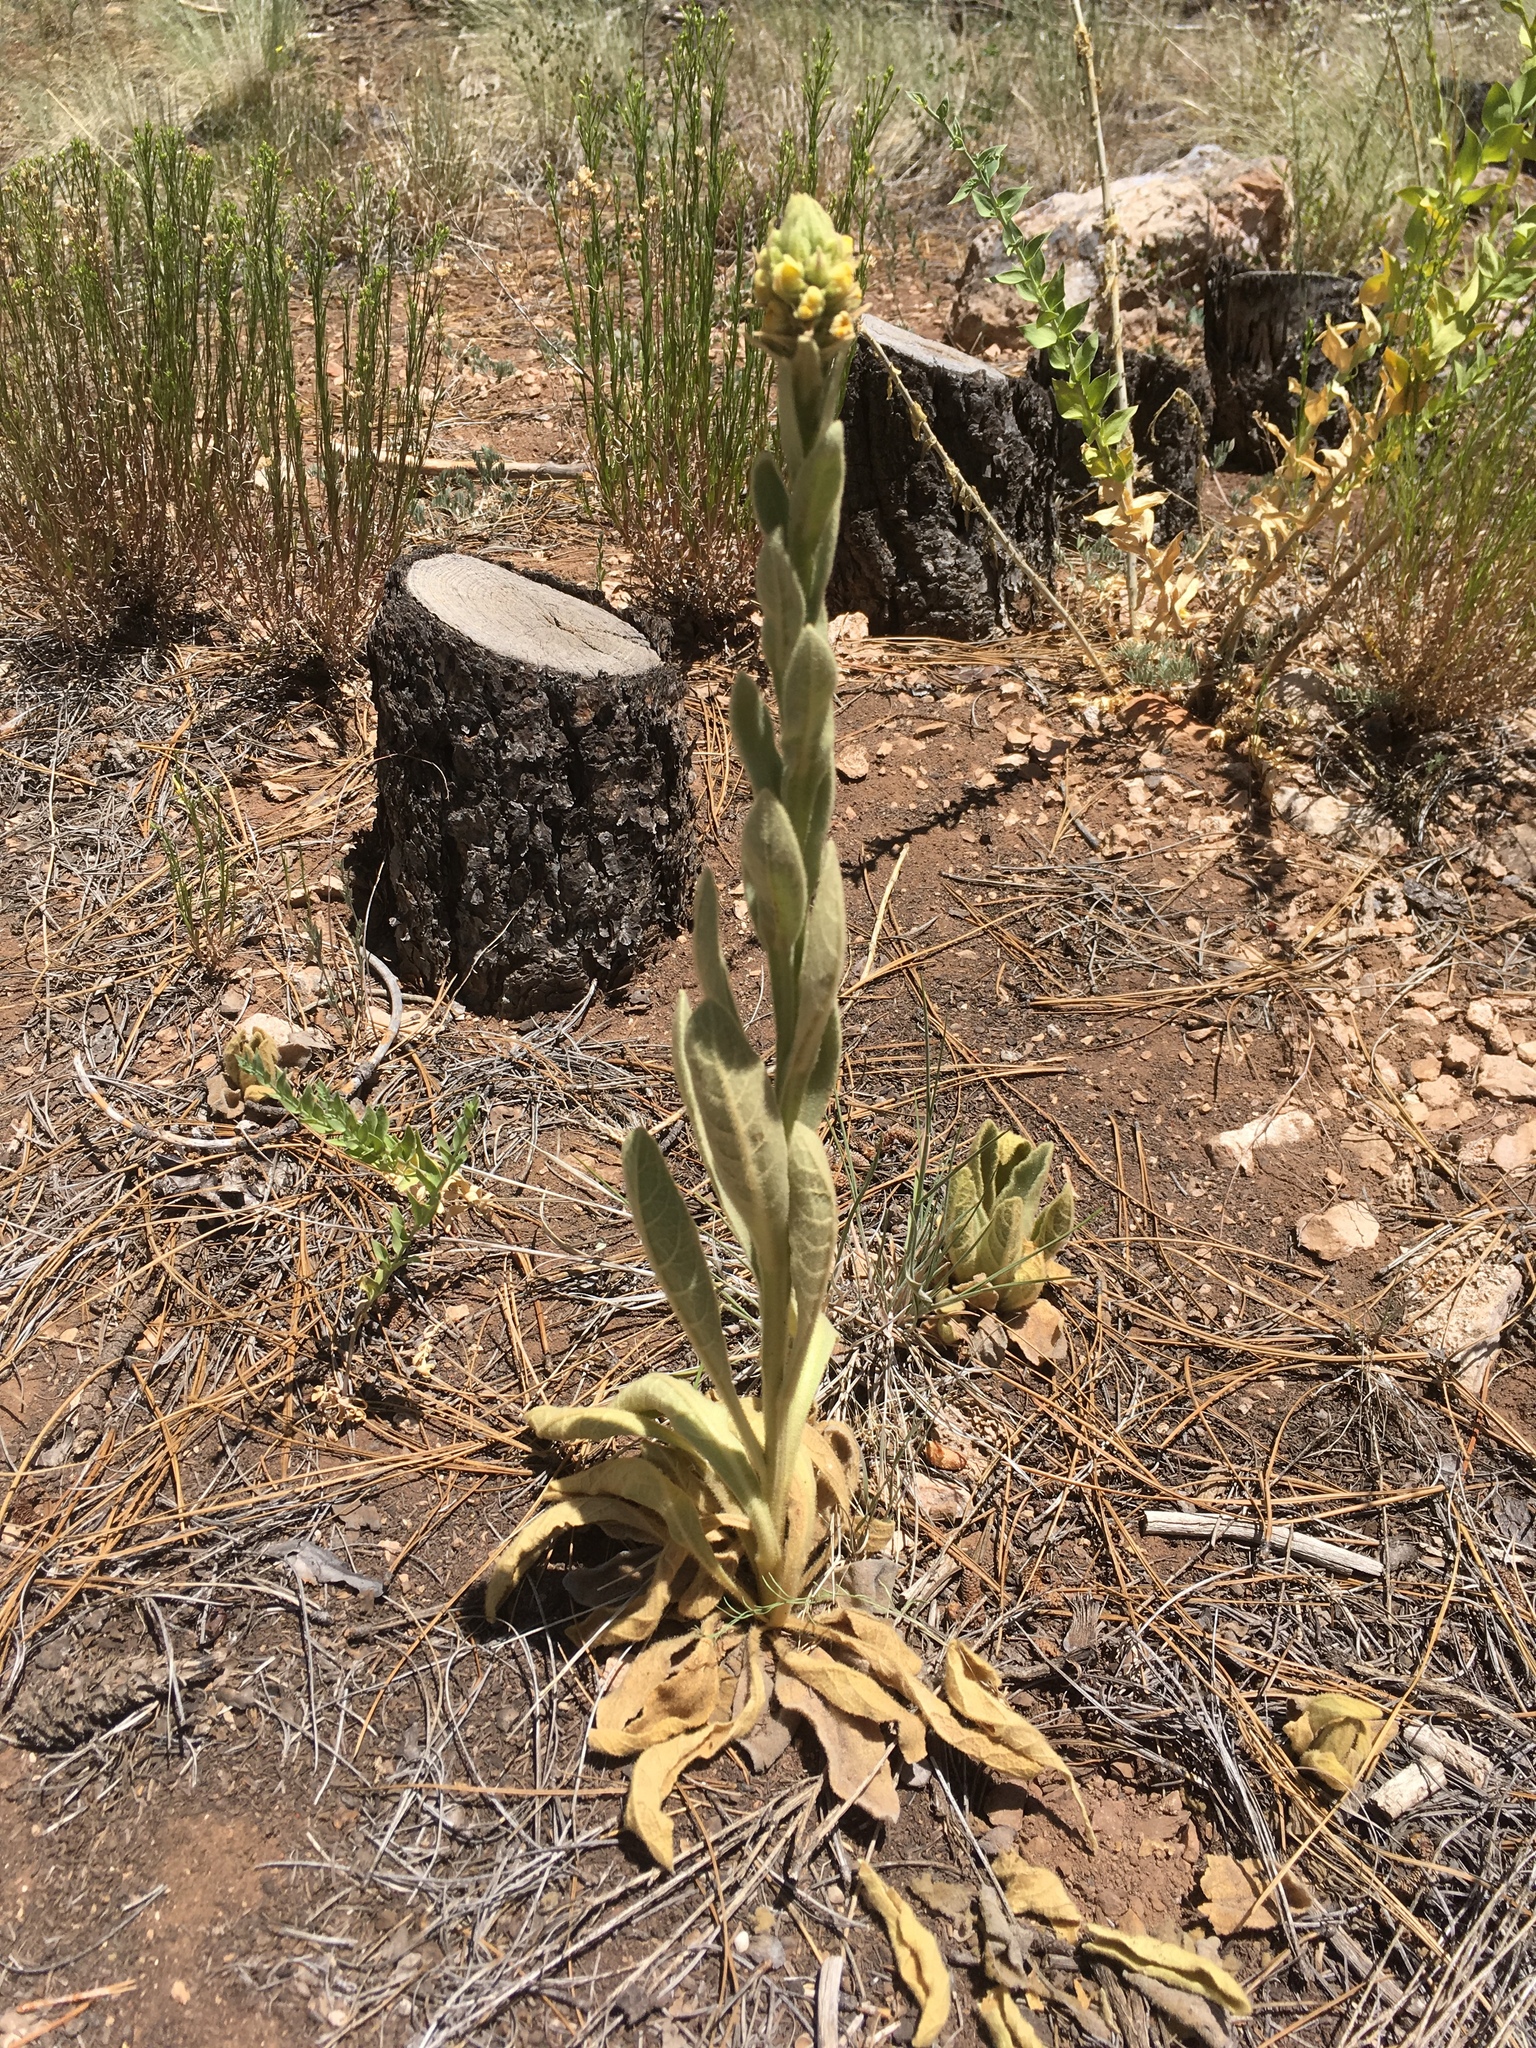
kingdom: Plantae
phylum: Tracheophyta
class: Magnoliopsida
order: Lamiales
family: Scrophulariaceae
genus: Verbascum
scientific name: Verbascum thapsus
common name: Common mullein
